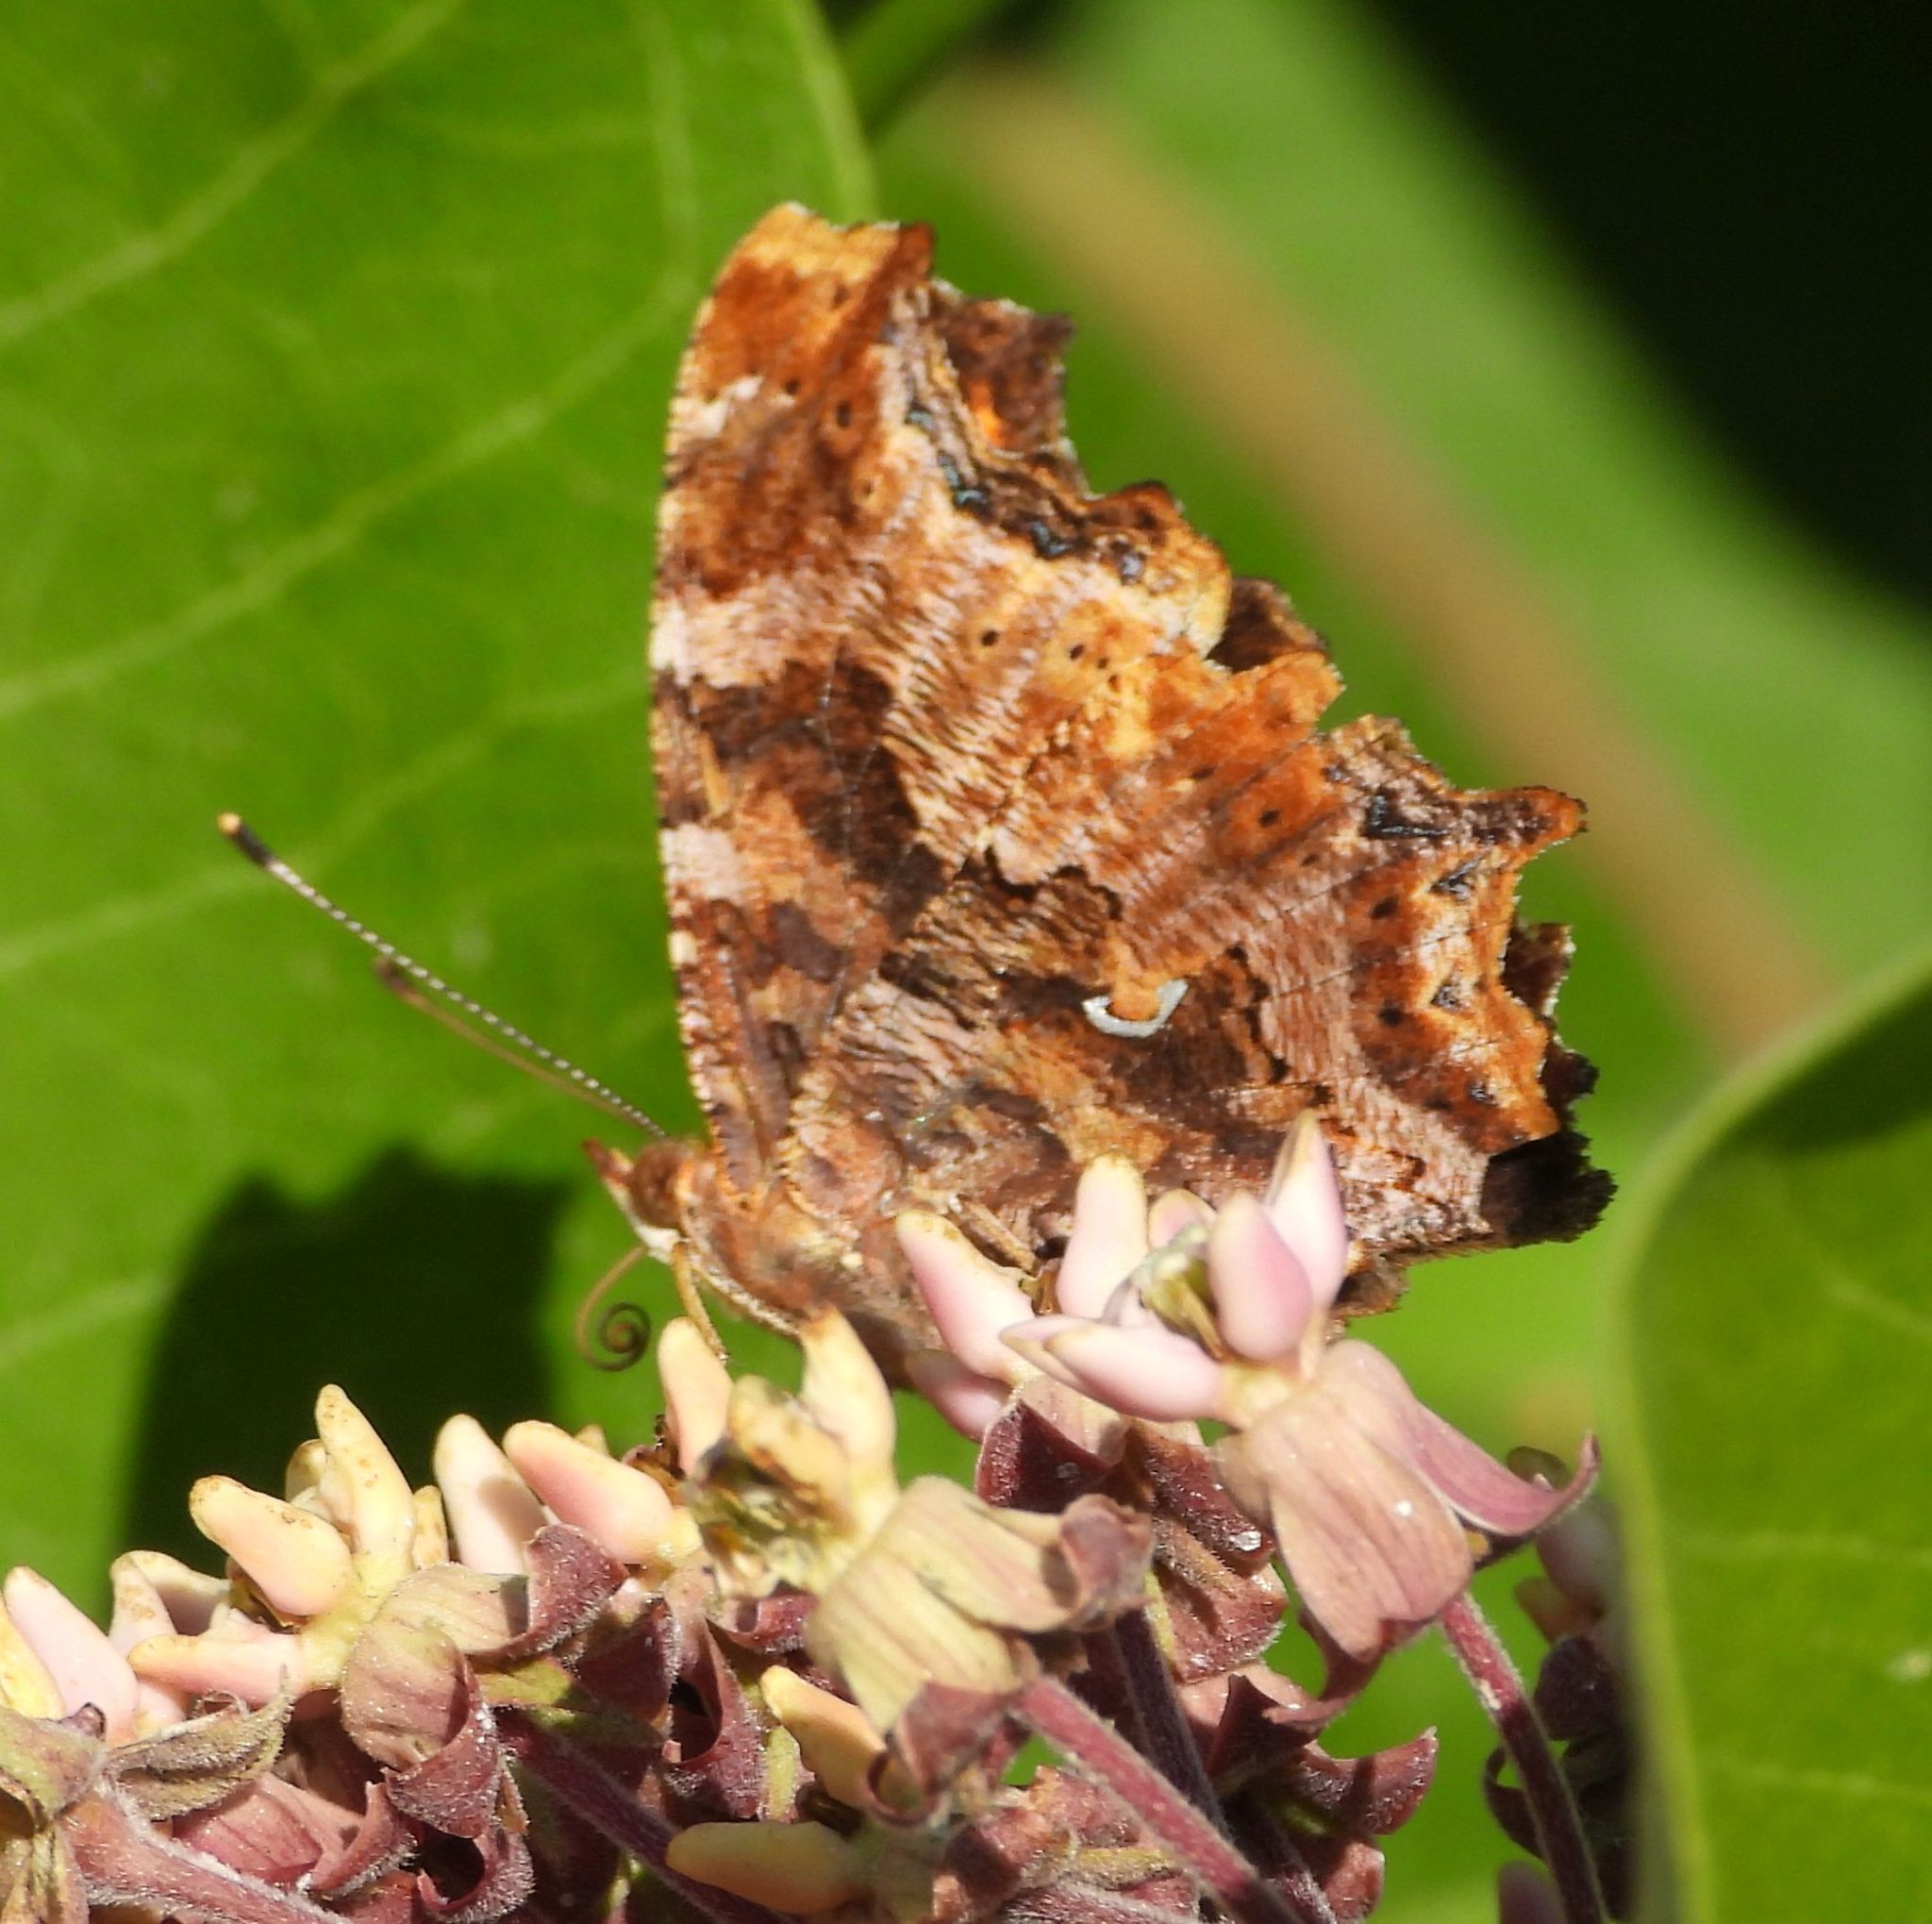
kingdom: Animalia
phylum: Arthropoda
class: Insecta
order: Lepidoptera
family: Nymphalidae
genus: Polygonia
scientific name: Polygonia comma
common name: Eastern comma
